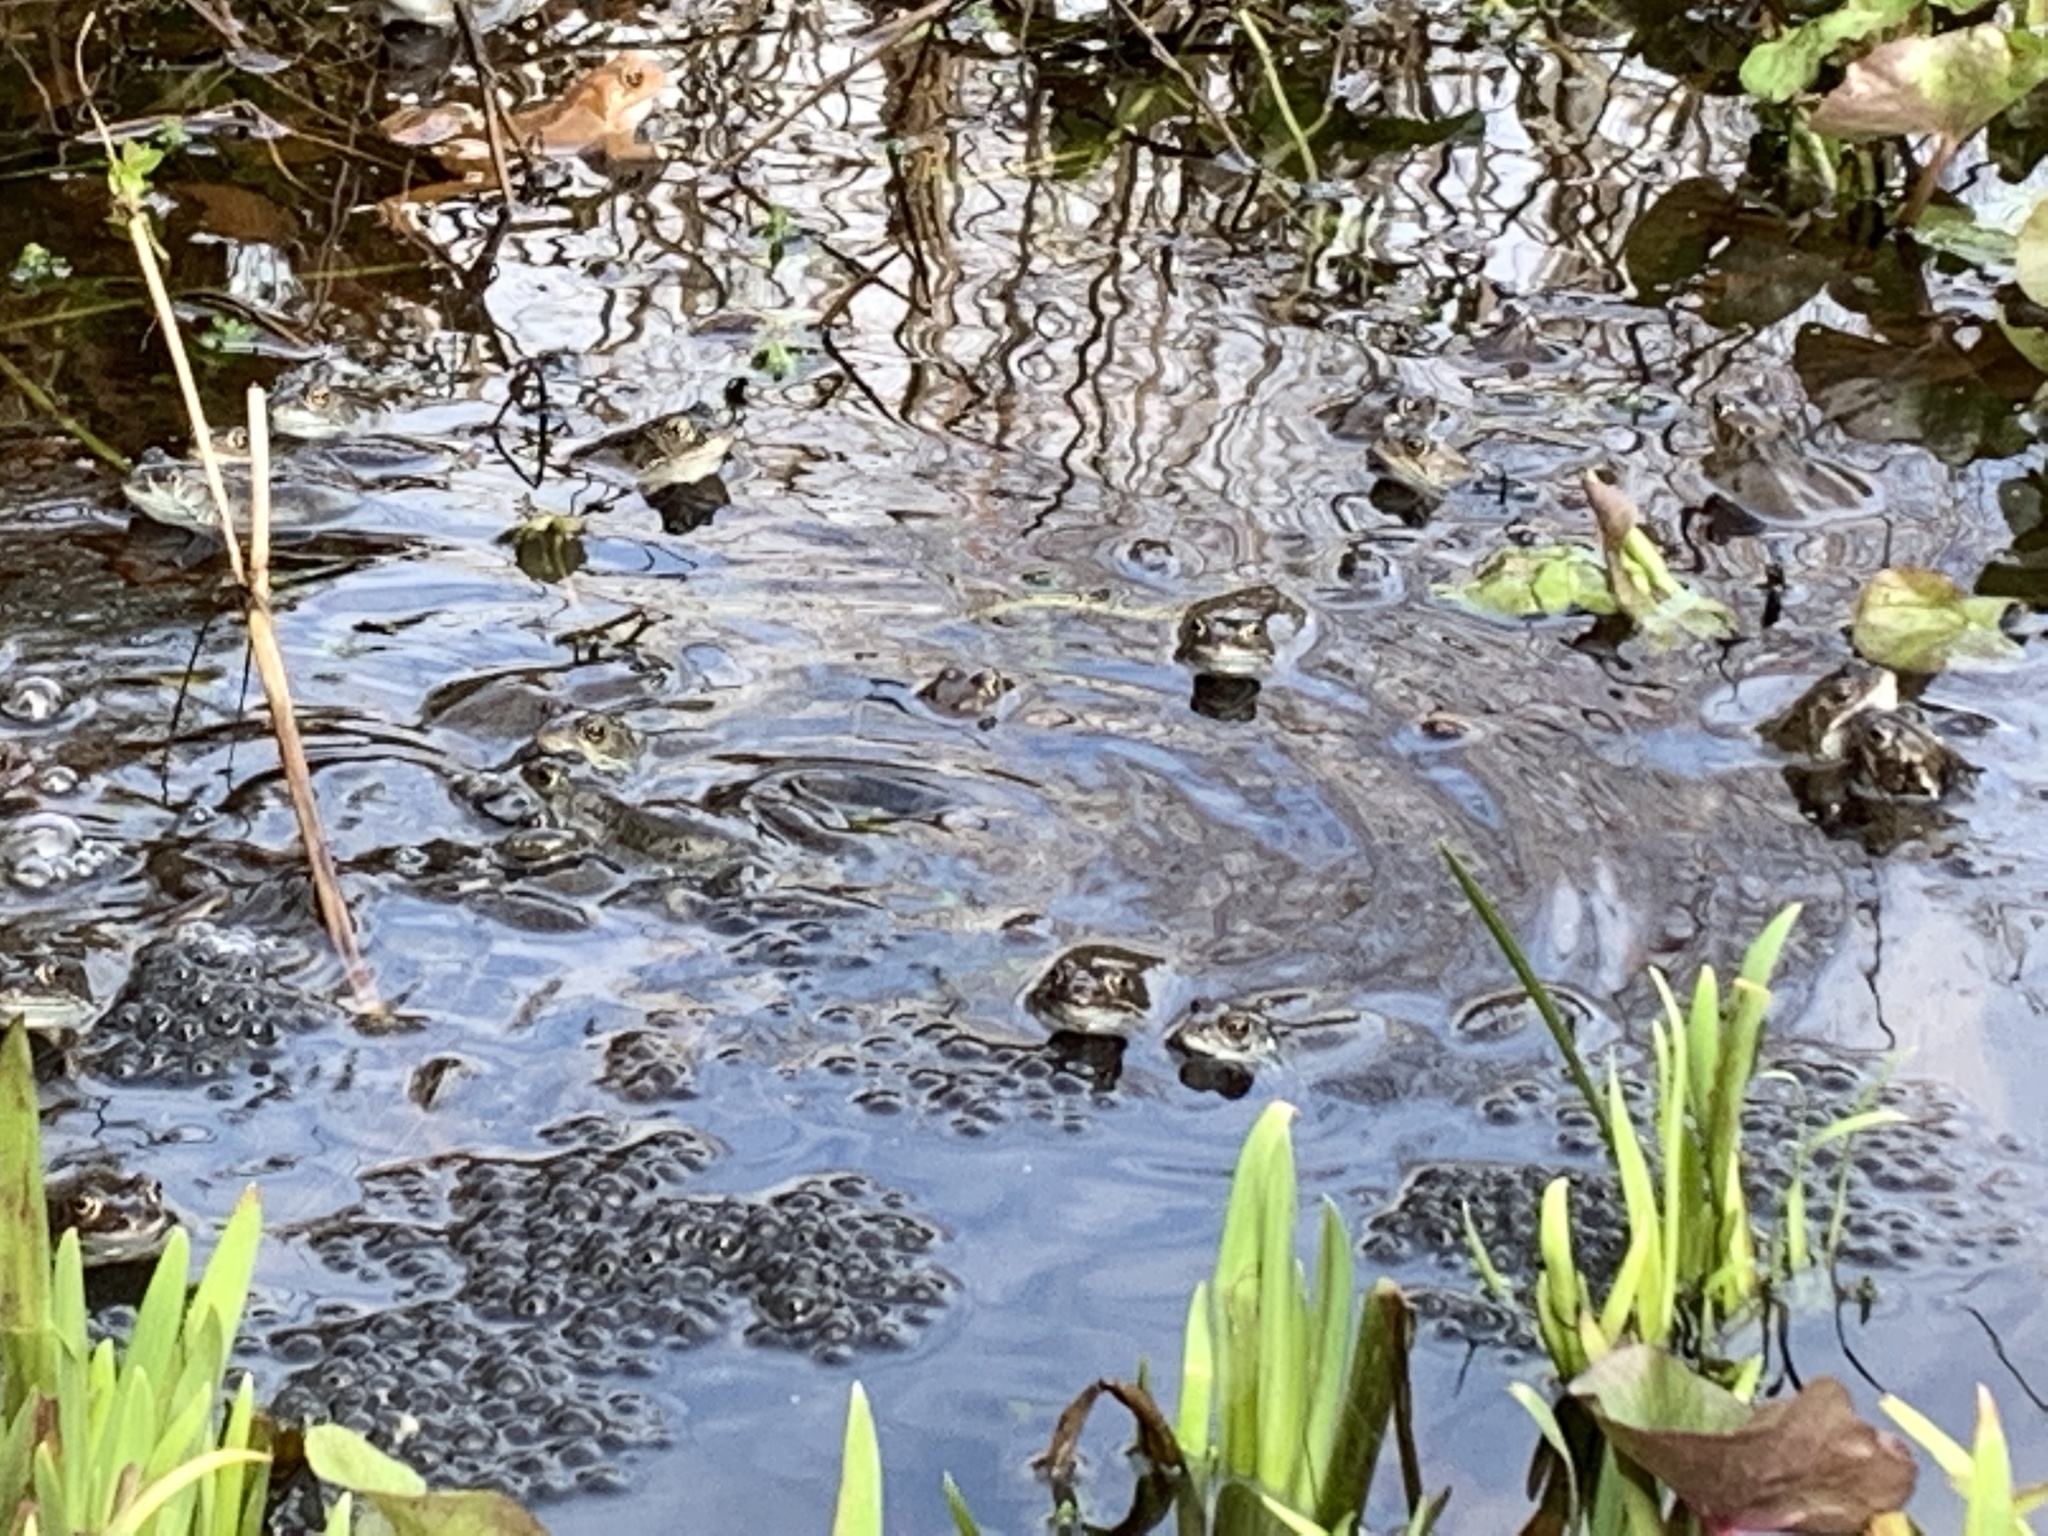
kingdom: Animalia
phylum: Chordata
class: Amphibia
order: Anura
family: Ranidae
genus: Rana
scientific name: Rana temporaria
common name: Common frog
